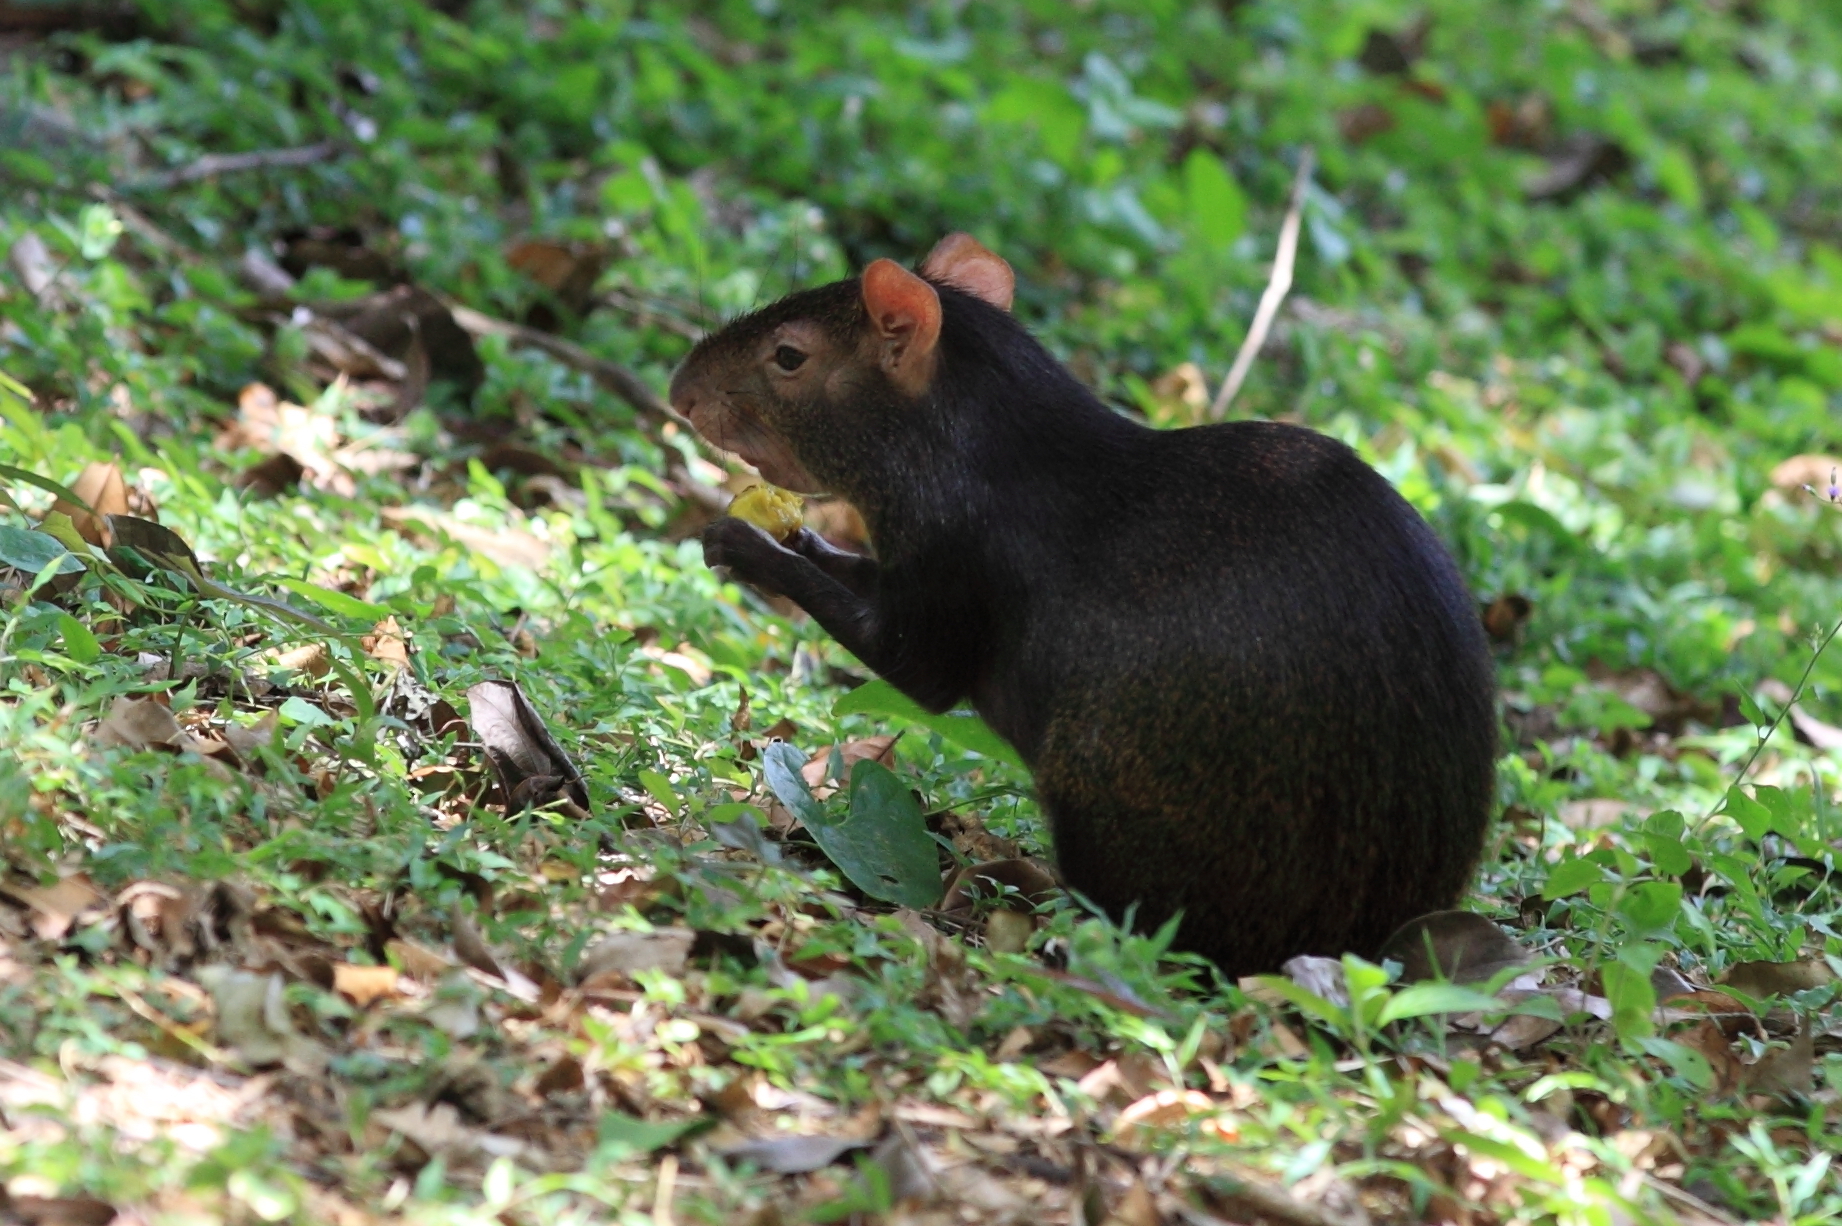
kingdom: Animalia
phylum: Chordata
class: Mammalia
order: Rodentia
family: Dasyproctidae
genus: Dasyprocta
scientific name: Dasyprocta leporina
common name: Red-rumped agouti
